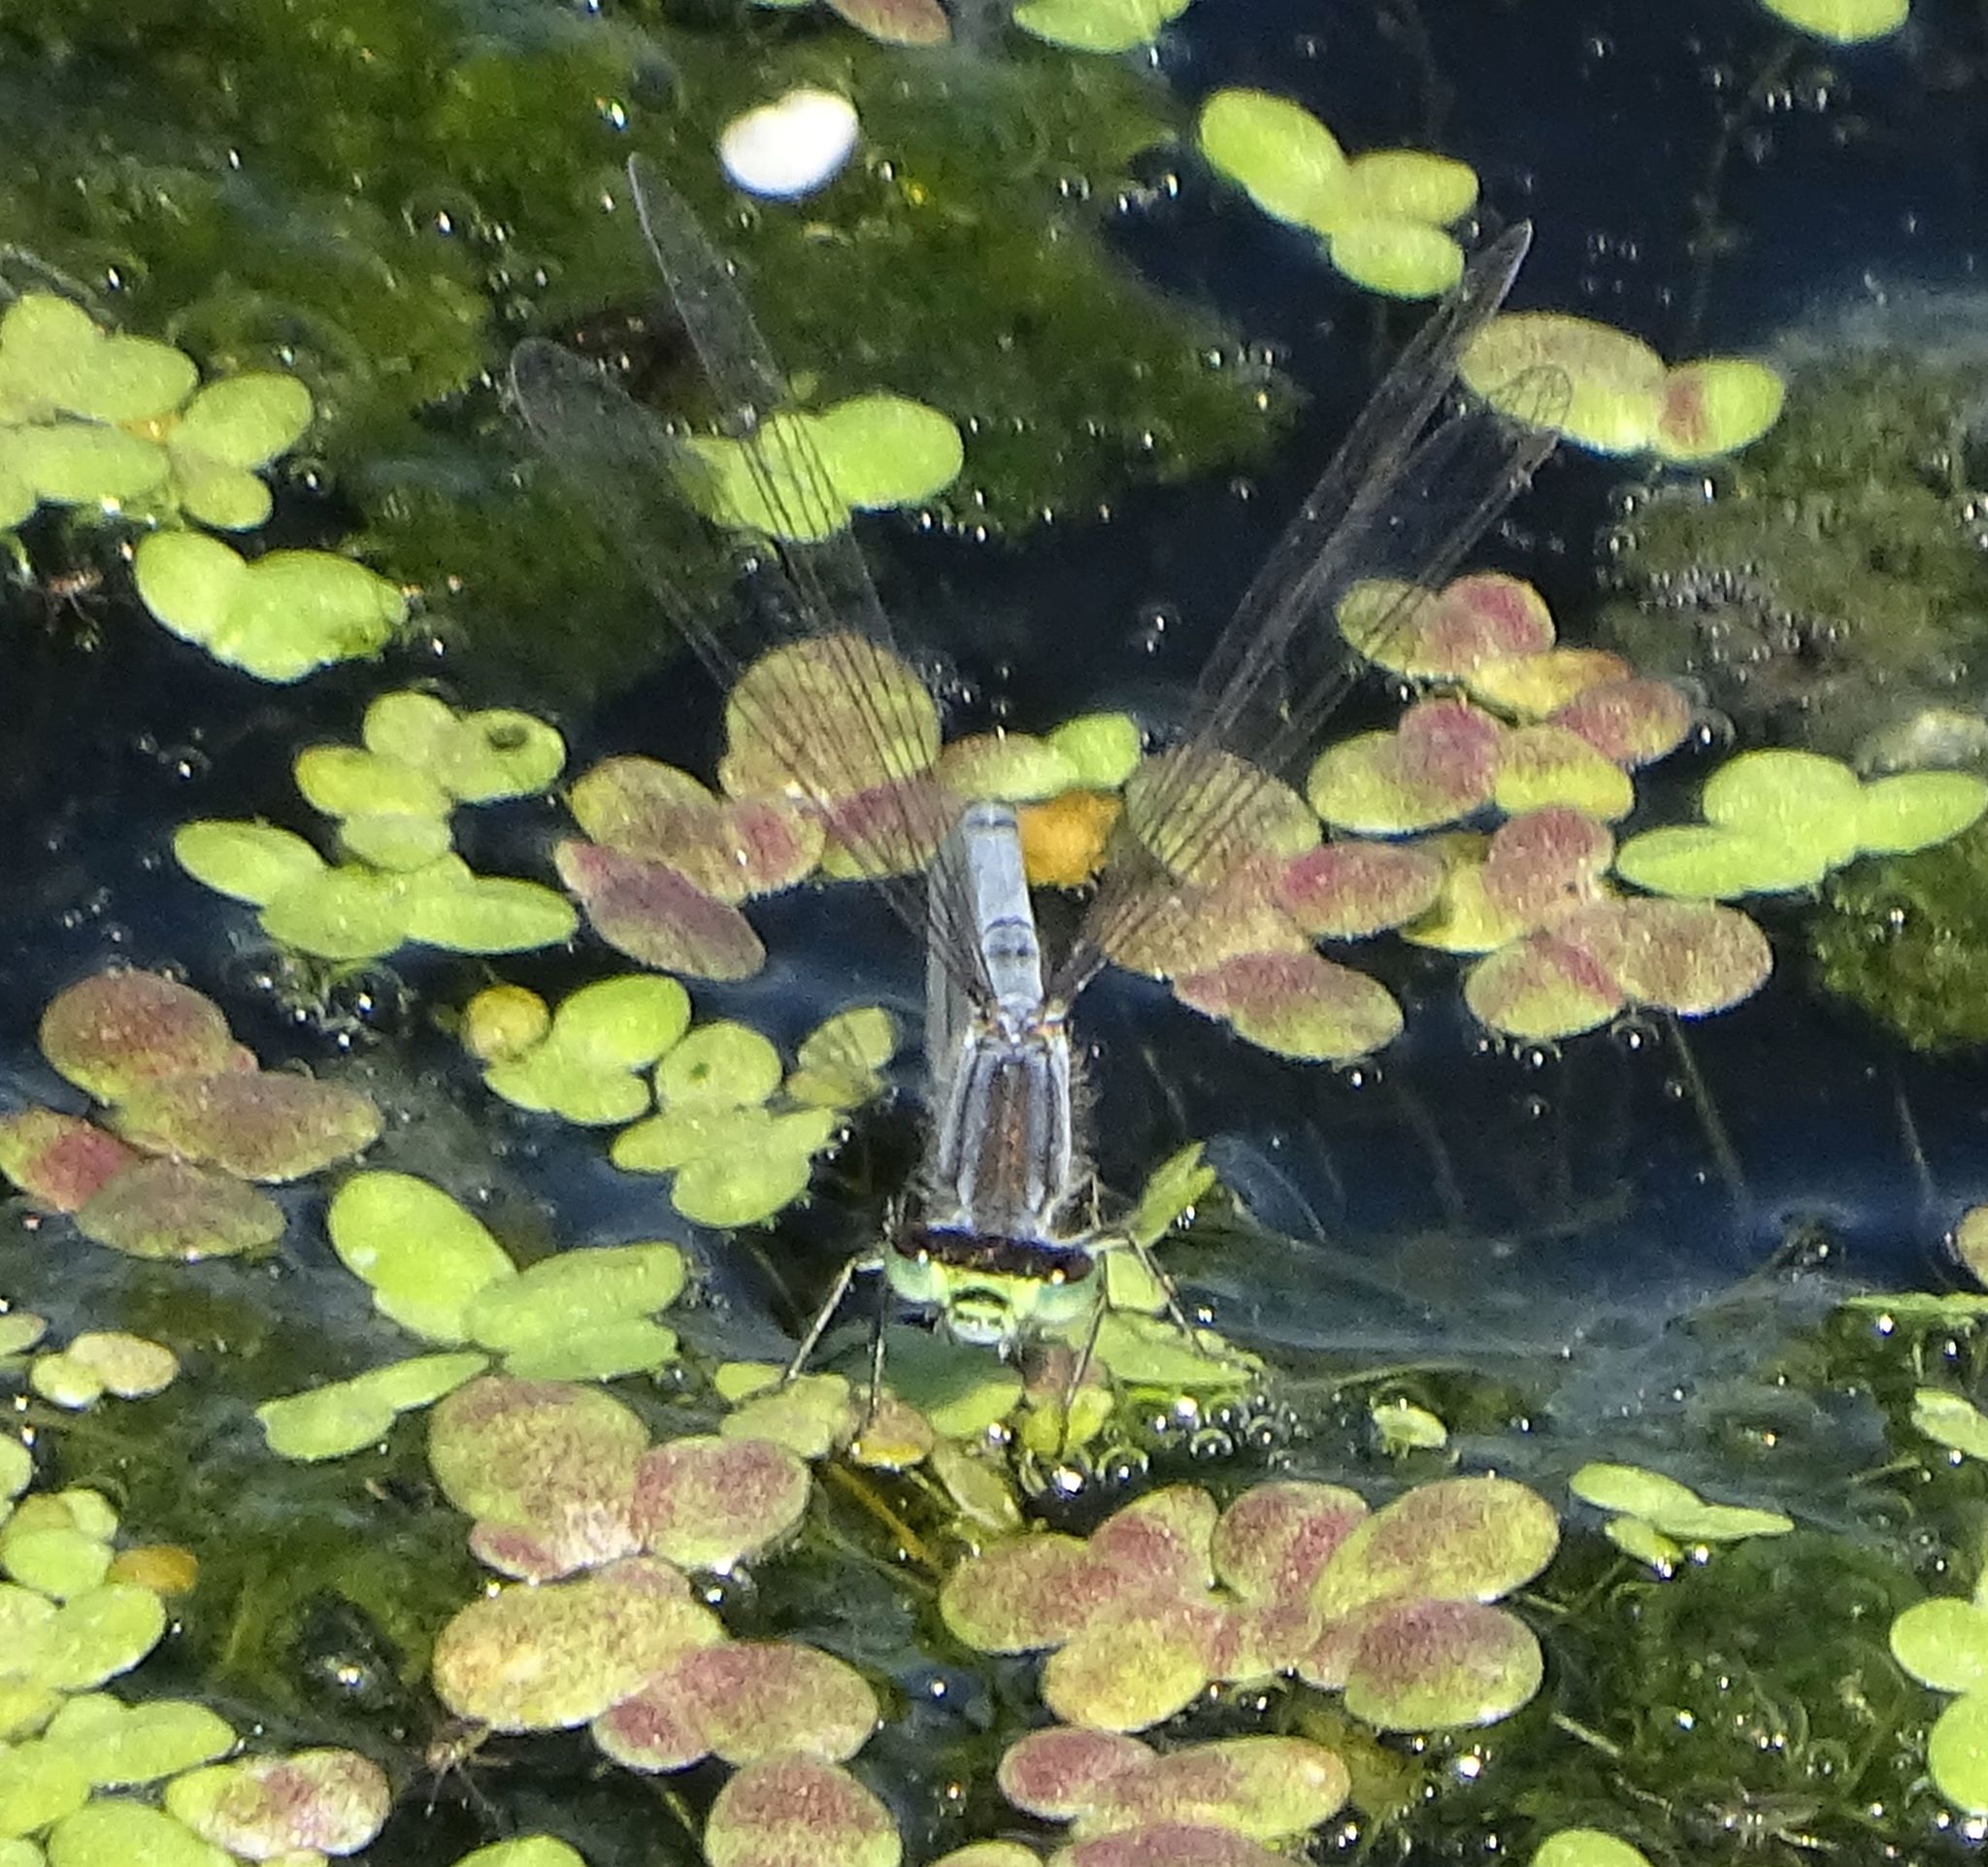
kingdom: Animalia
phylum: Arthropoda
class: Insecta
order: Odonata
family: Coenagrionidae
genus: Ischnura
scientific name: Ischnura verticalis
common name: Eastern forktail
